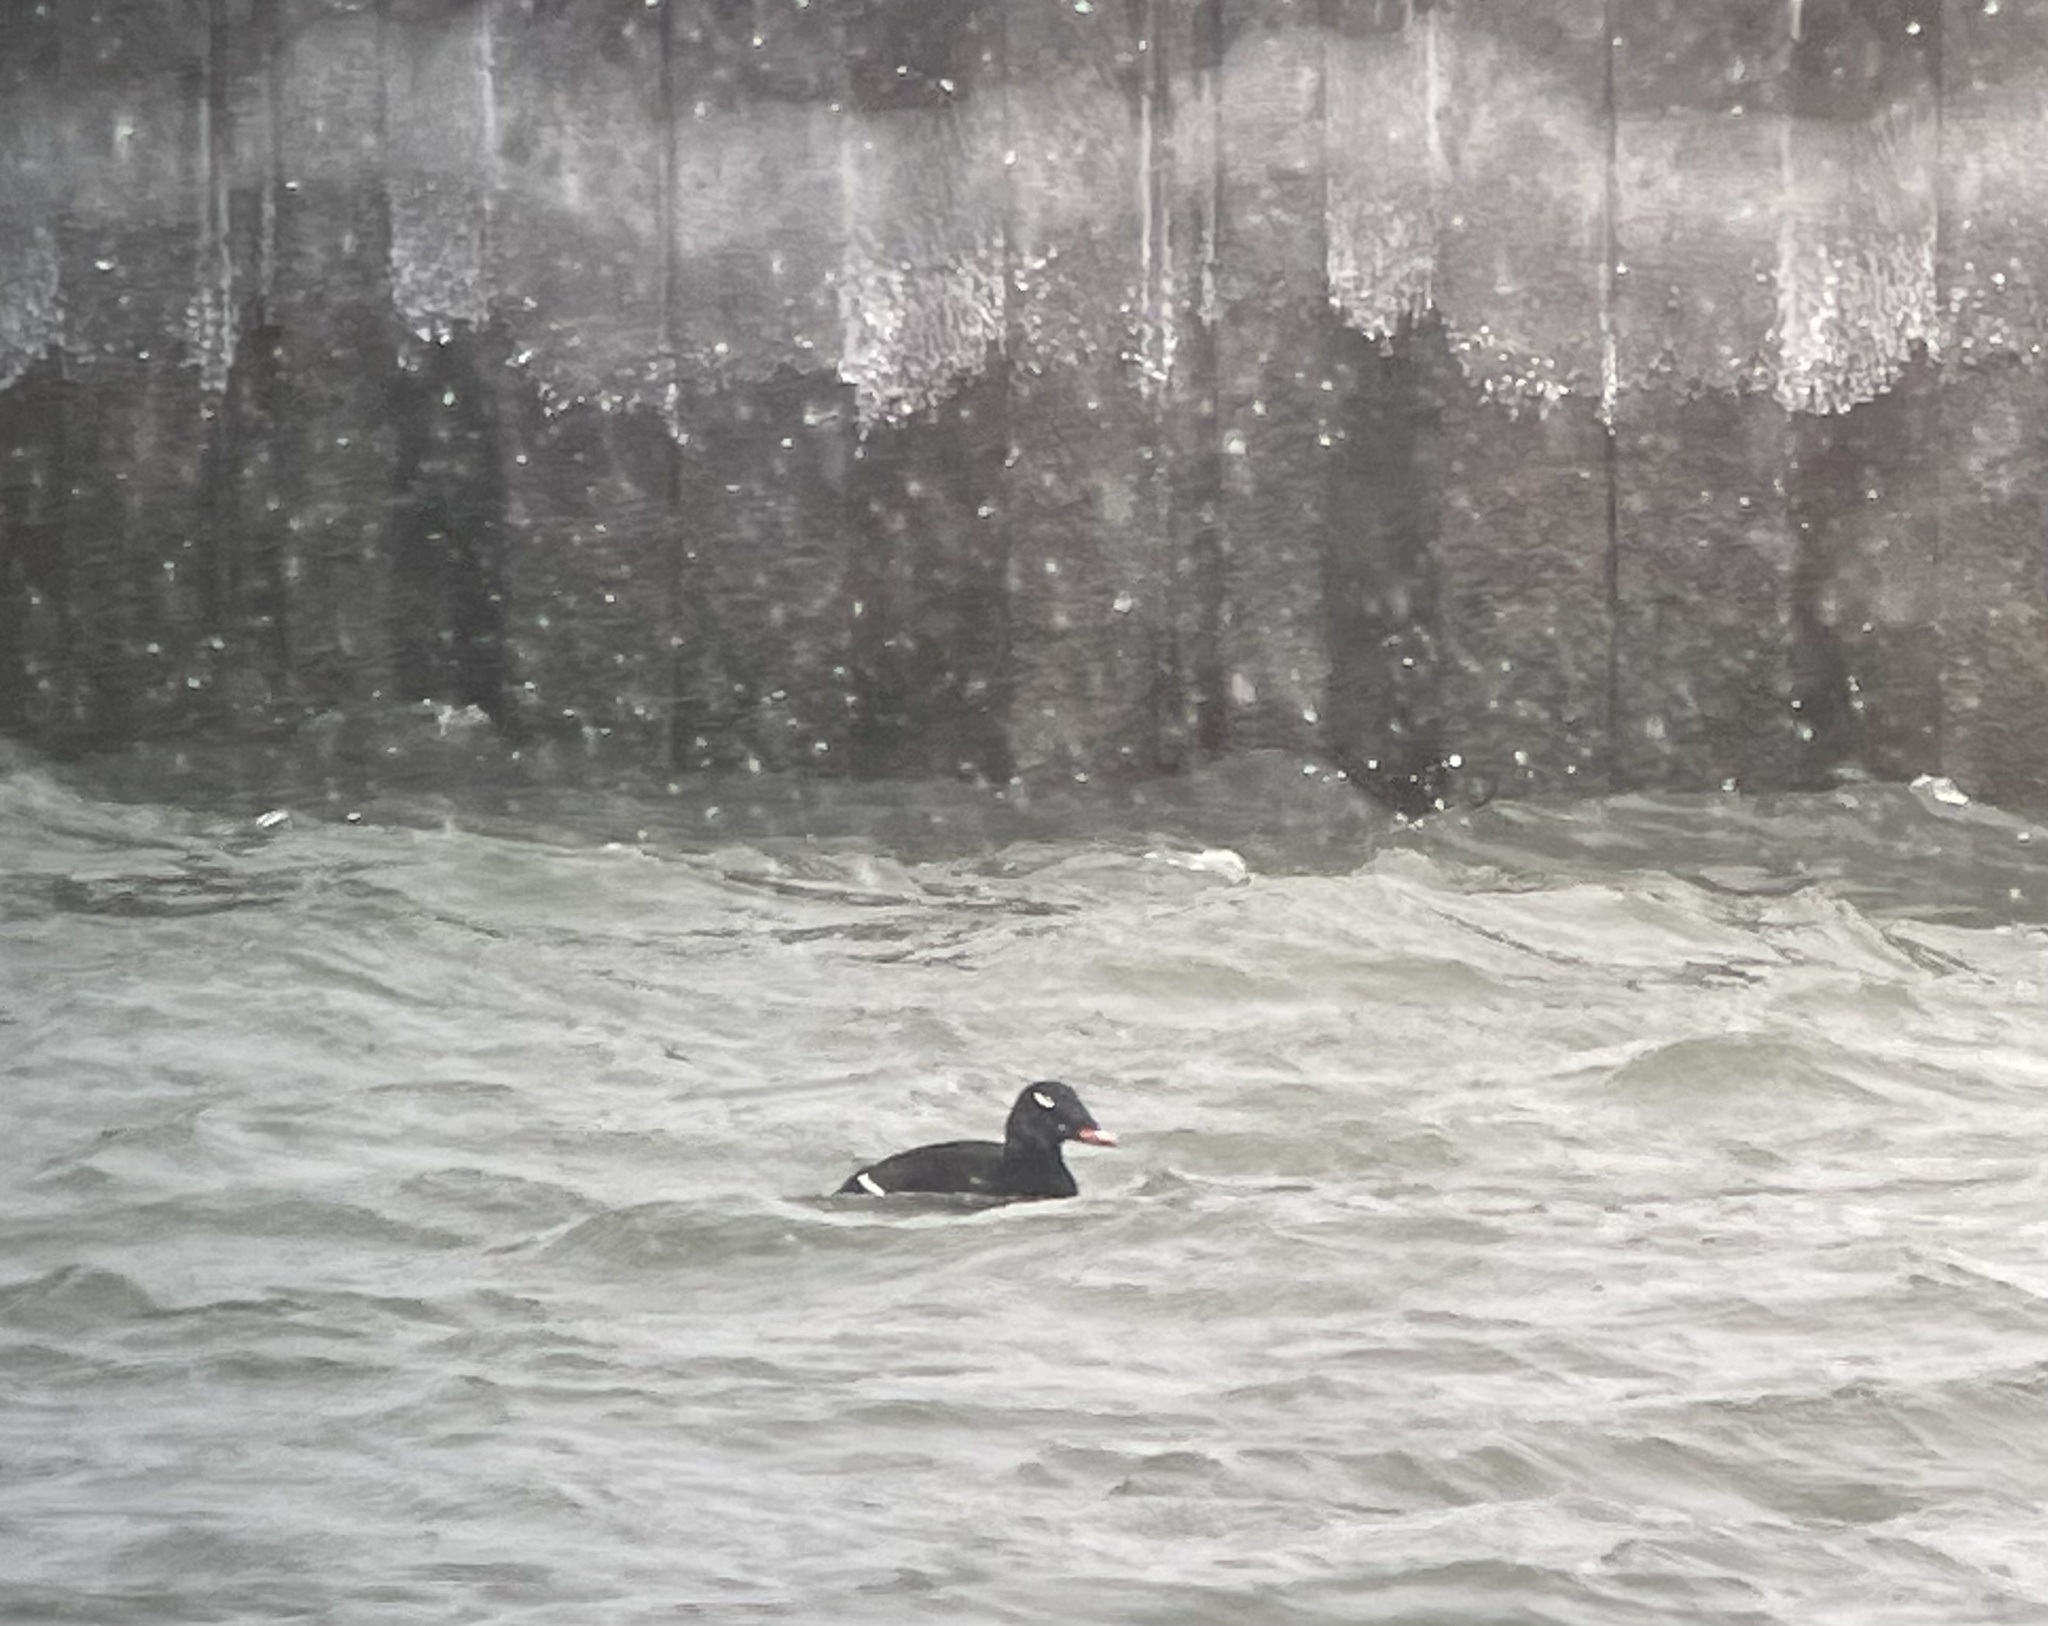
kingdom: Animalia
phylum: Chordata
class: Aves
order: Anseriformes
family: Anatidae
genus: Melanitta
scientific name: Melanitta deglandi
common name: White-winged scoter
